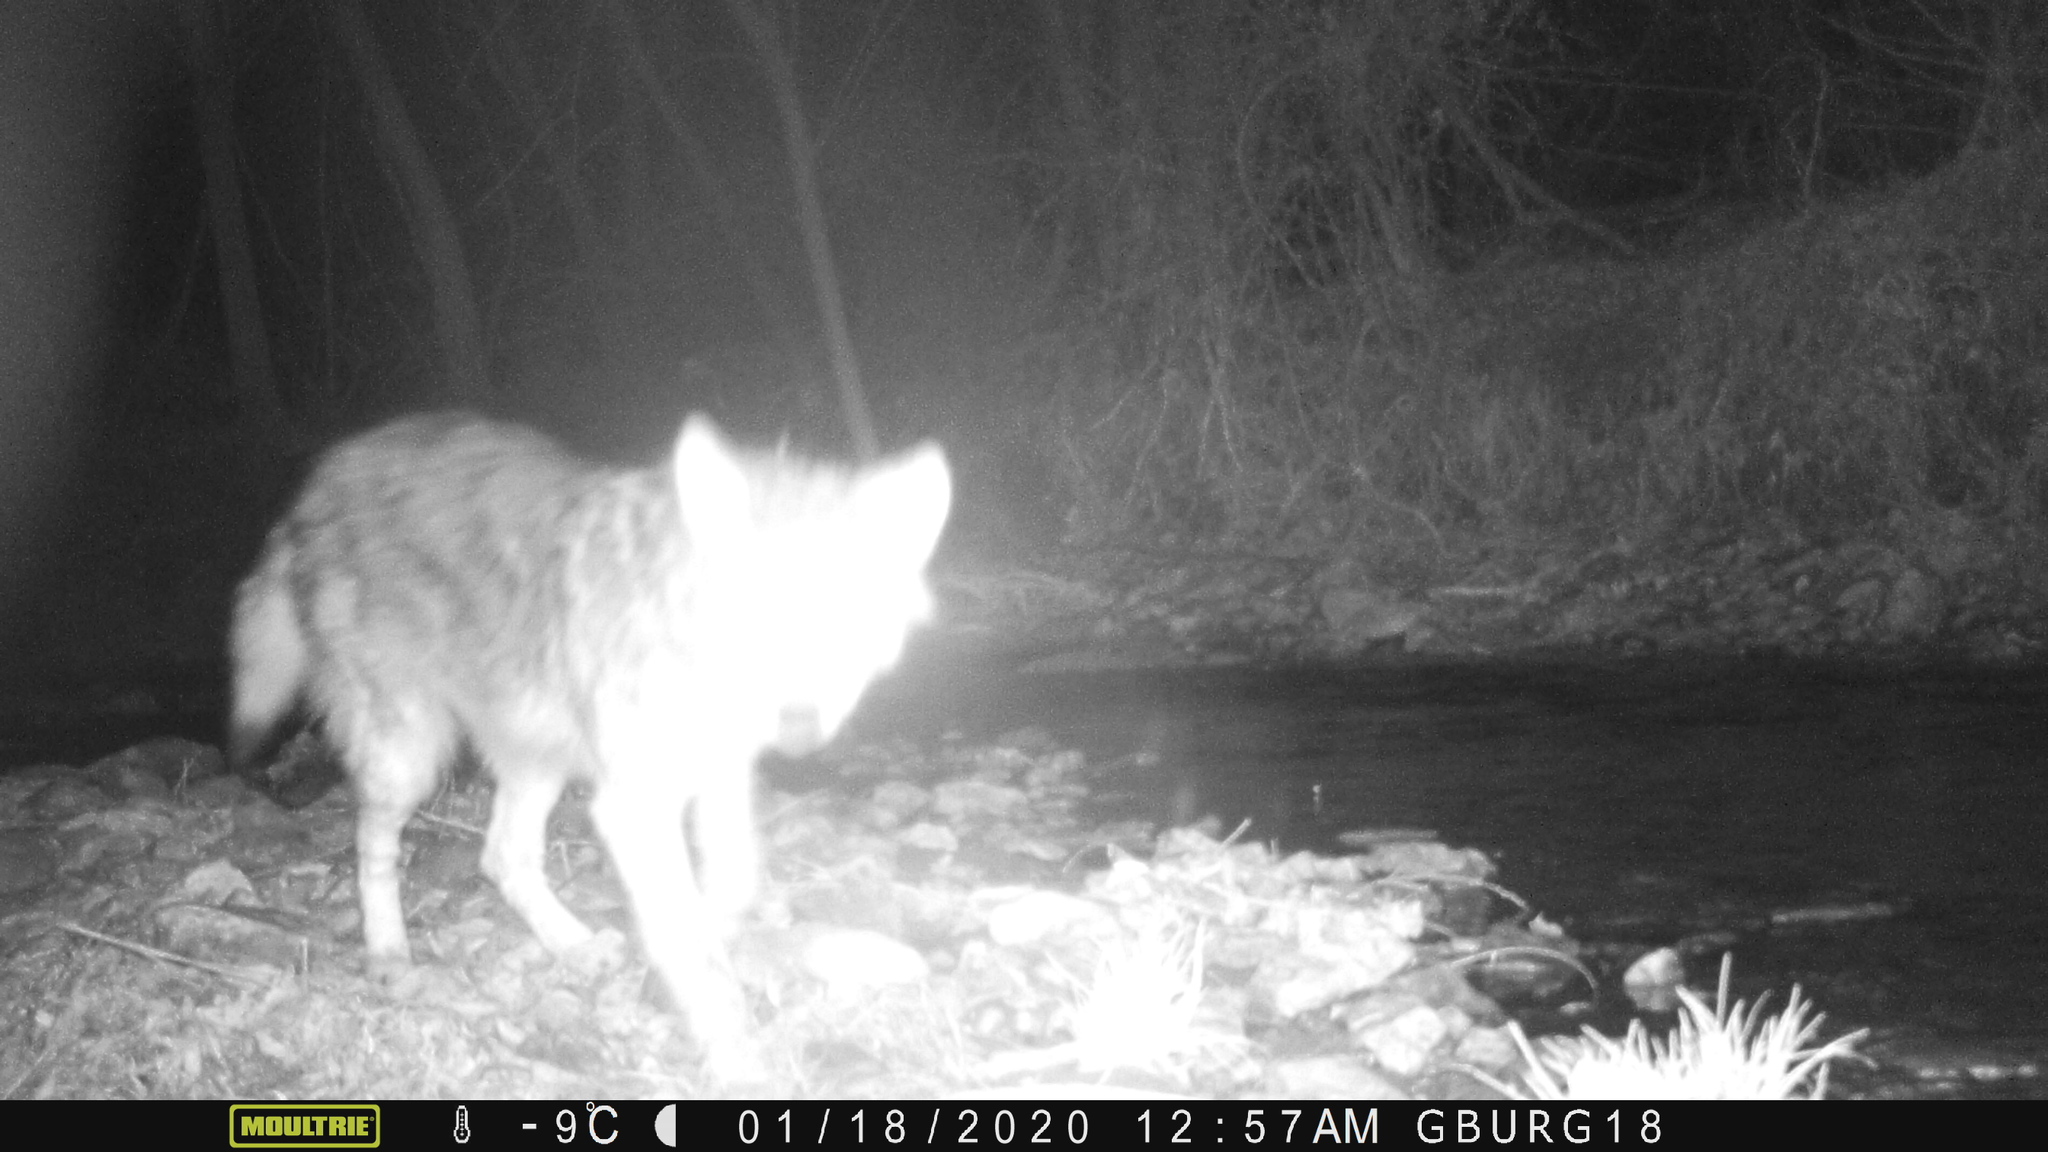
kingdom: Animalia
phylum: Chordata
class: Mammalia
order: Carnivora
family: Canidae
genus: Canis
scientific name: Canis latrans
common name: Coyote
